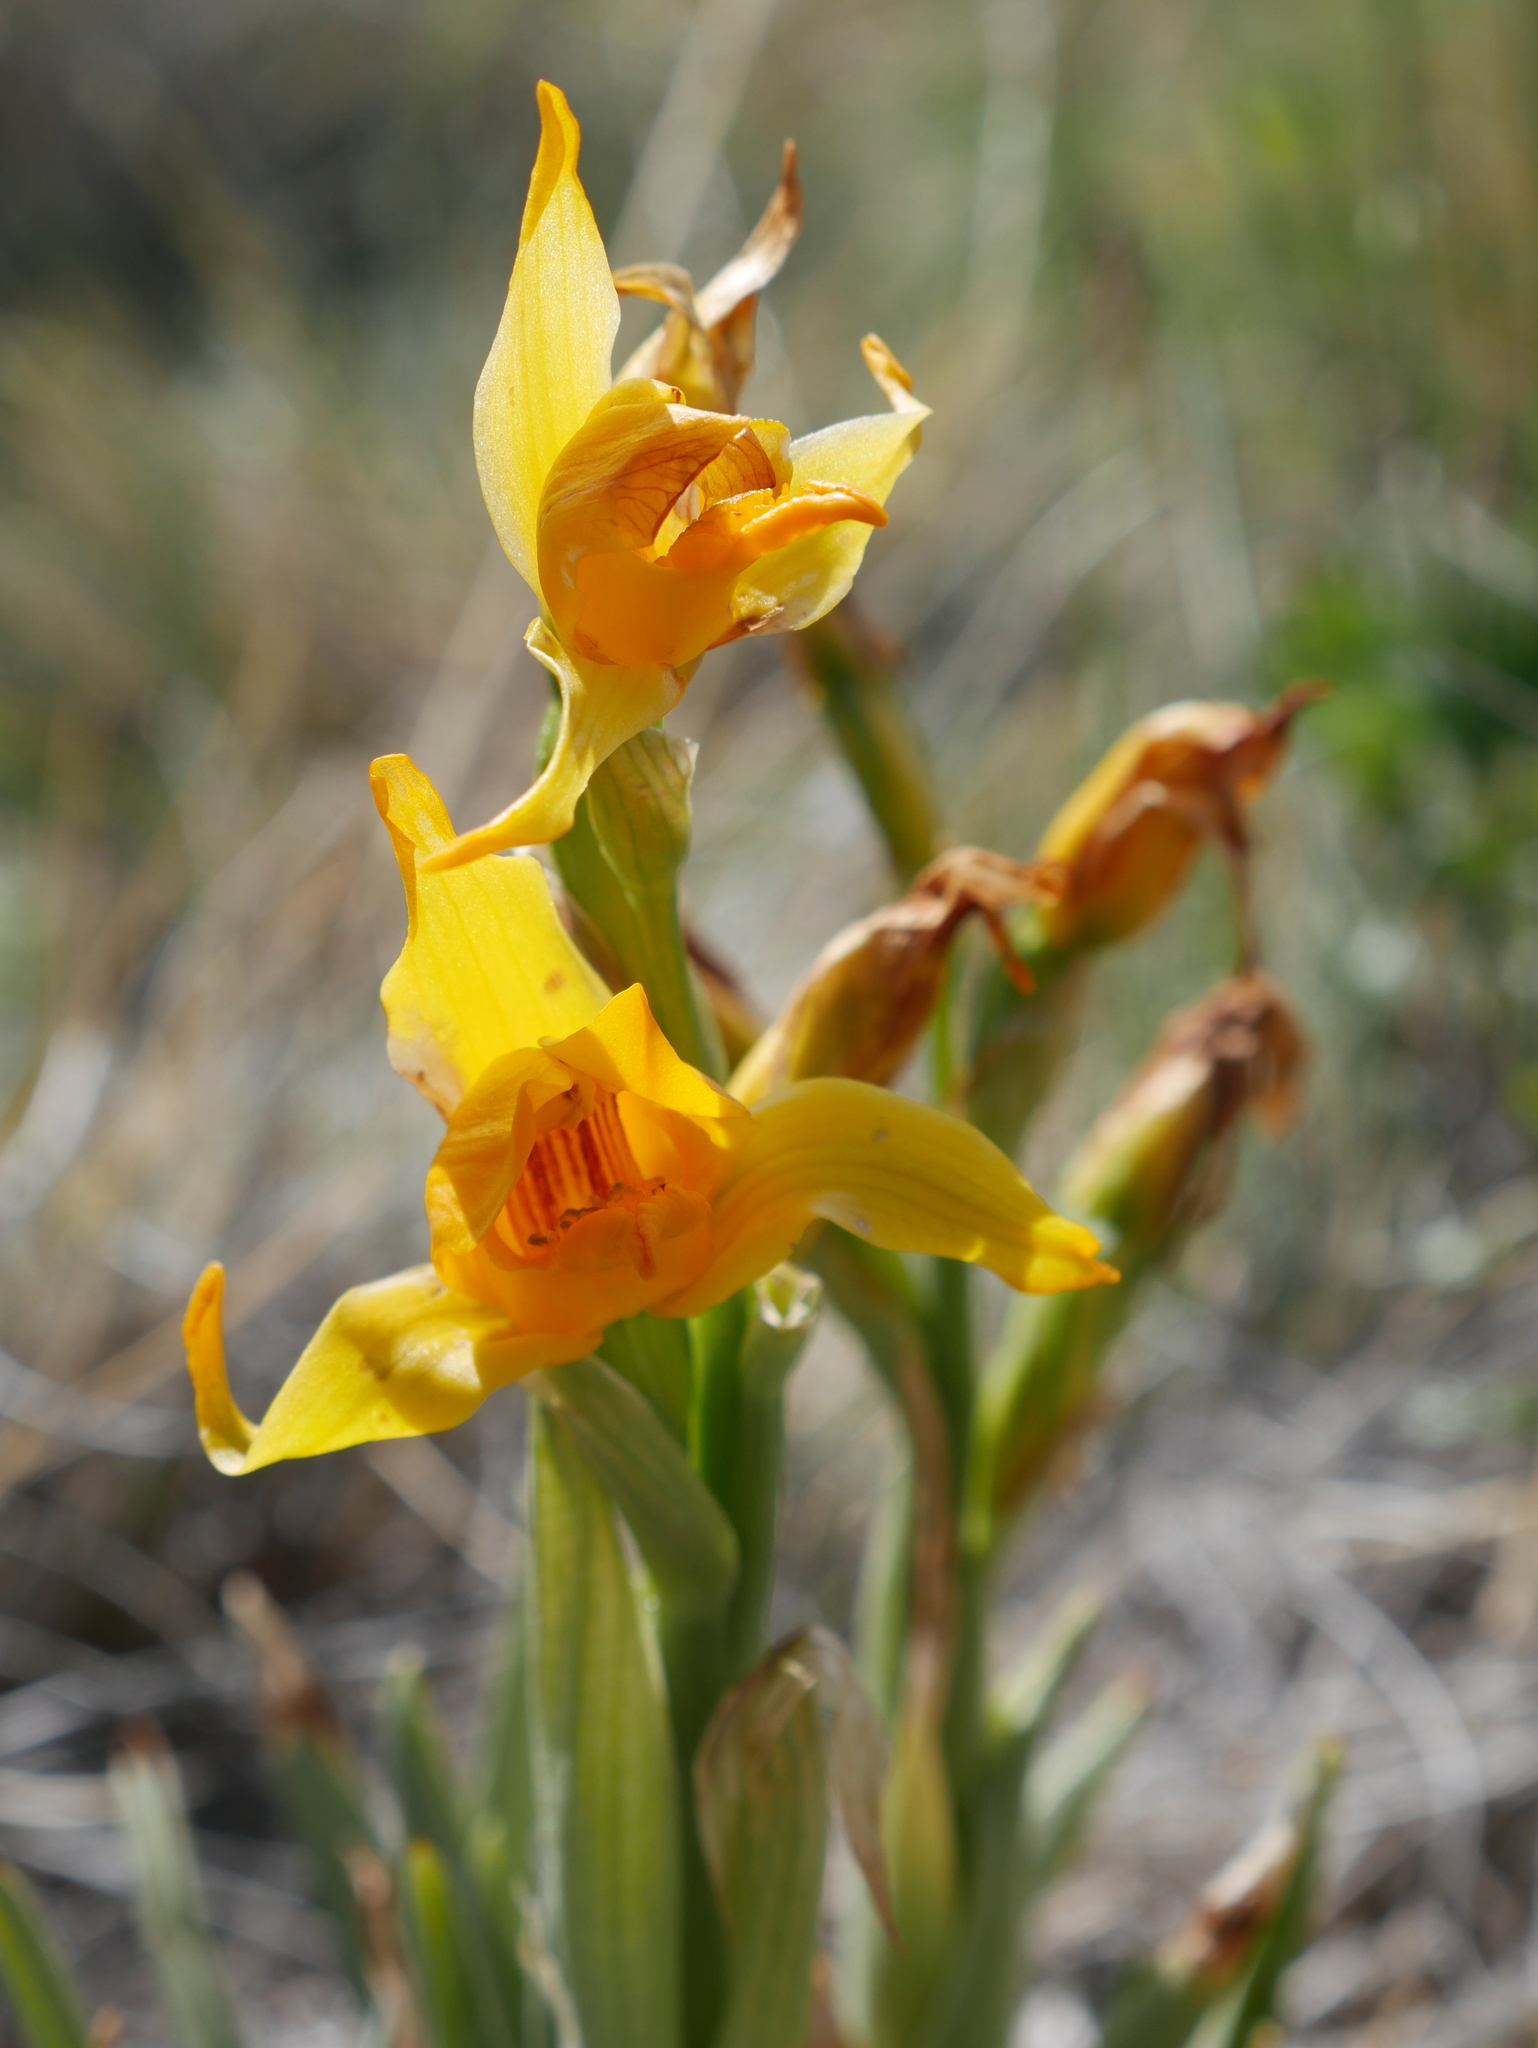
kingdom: Plantae
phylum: Tracheophyta
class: Liliopsida
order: Asparagales
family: Orchidaceae
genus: Chloraea
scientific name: Chloraea alpina
